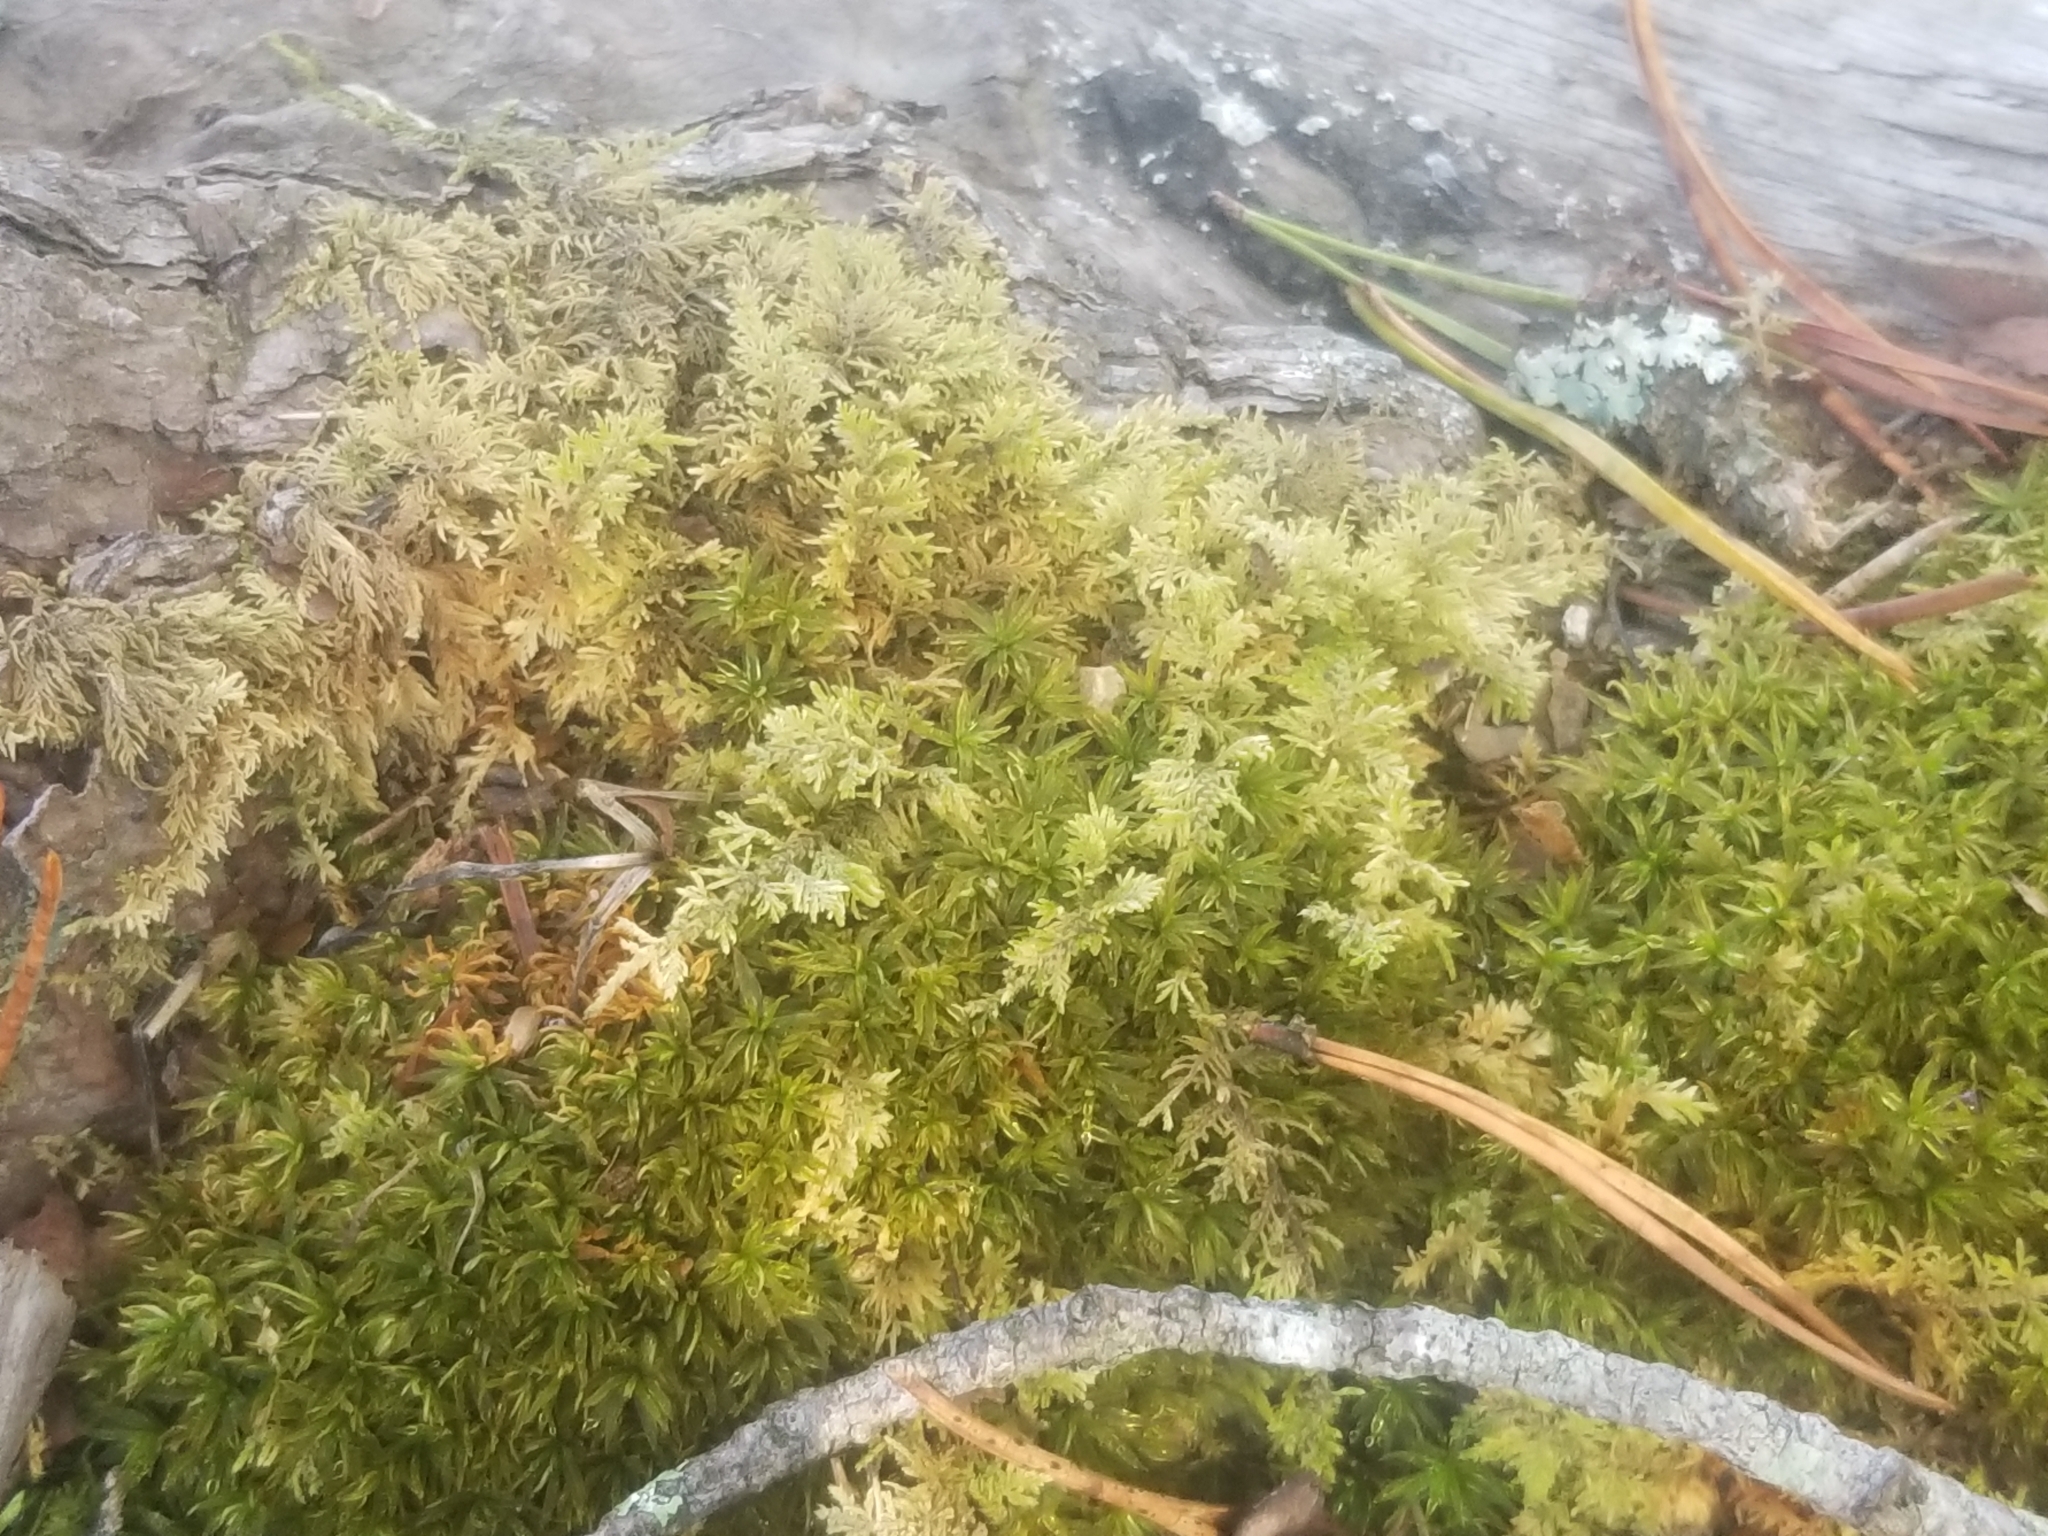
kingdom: Plantae
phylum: Bryophyta
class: Bryopsida
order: Hypnales
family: Thuidiaceae
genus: Thuidium
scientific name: Thuidium delicatulum
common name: Delicate fern moss
